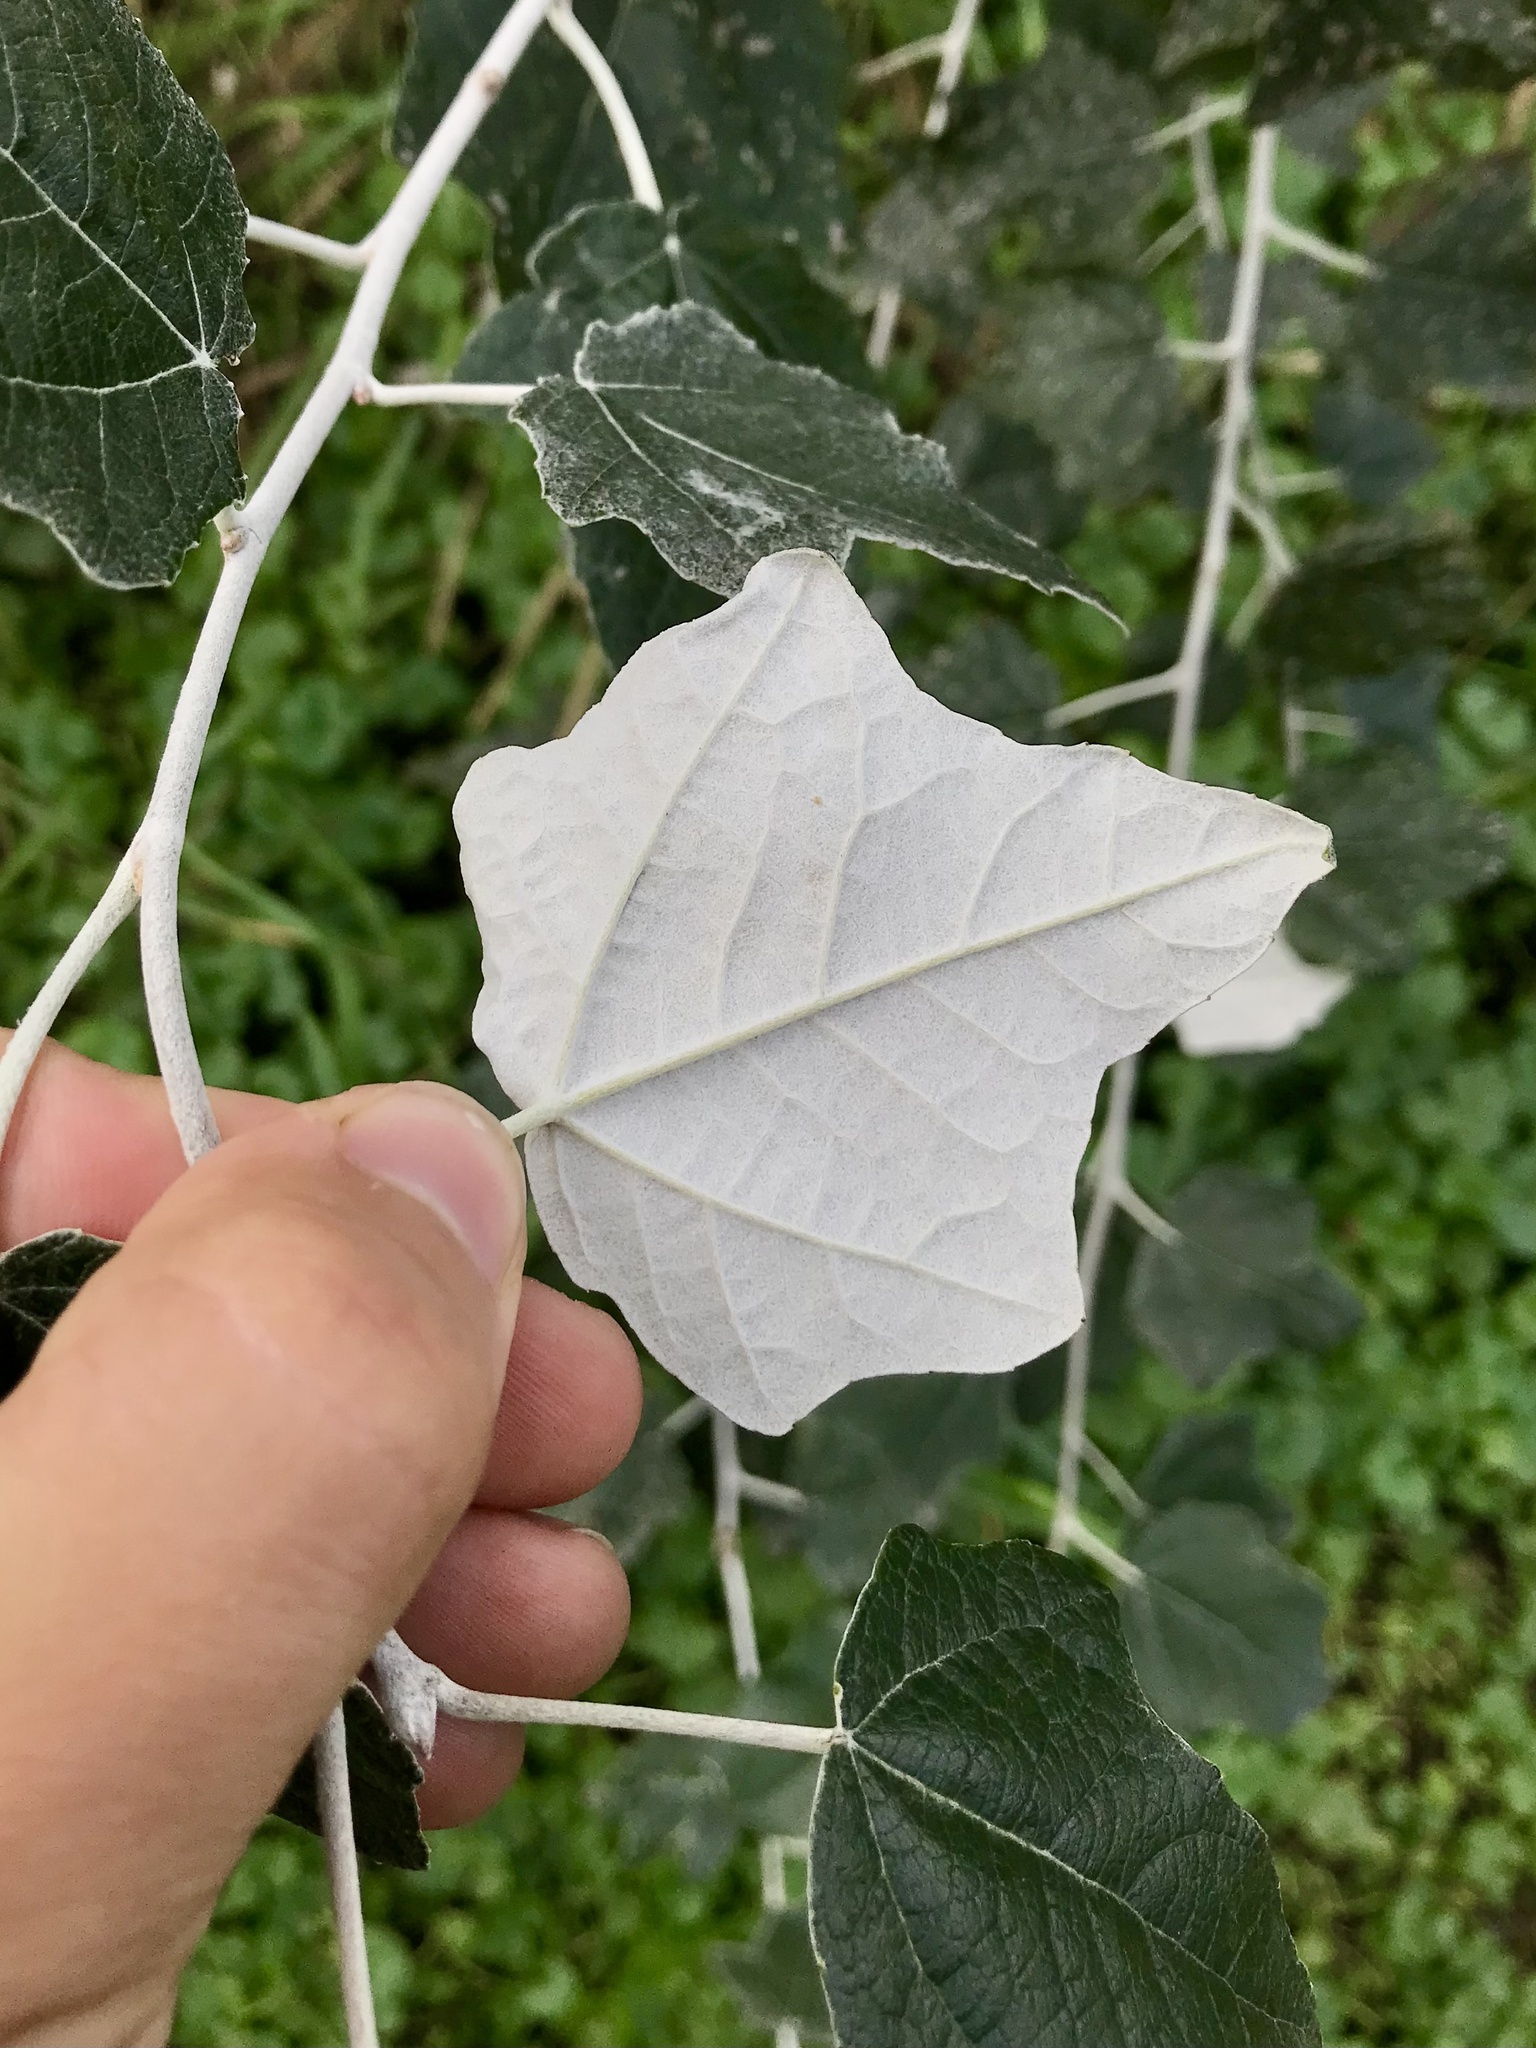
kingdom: Animalia
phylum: Arthropoda
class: Insecta
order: Lepidoptera
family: Gracillariidae
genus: Phyllocnistis
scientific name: Phyllocnistis populiella
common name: Aspen serpentine leafminer moth
